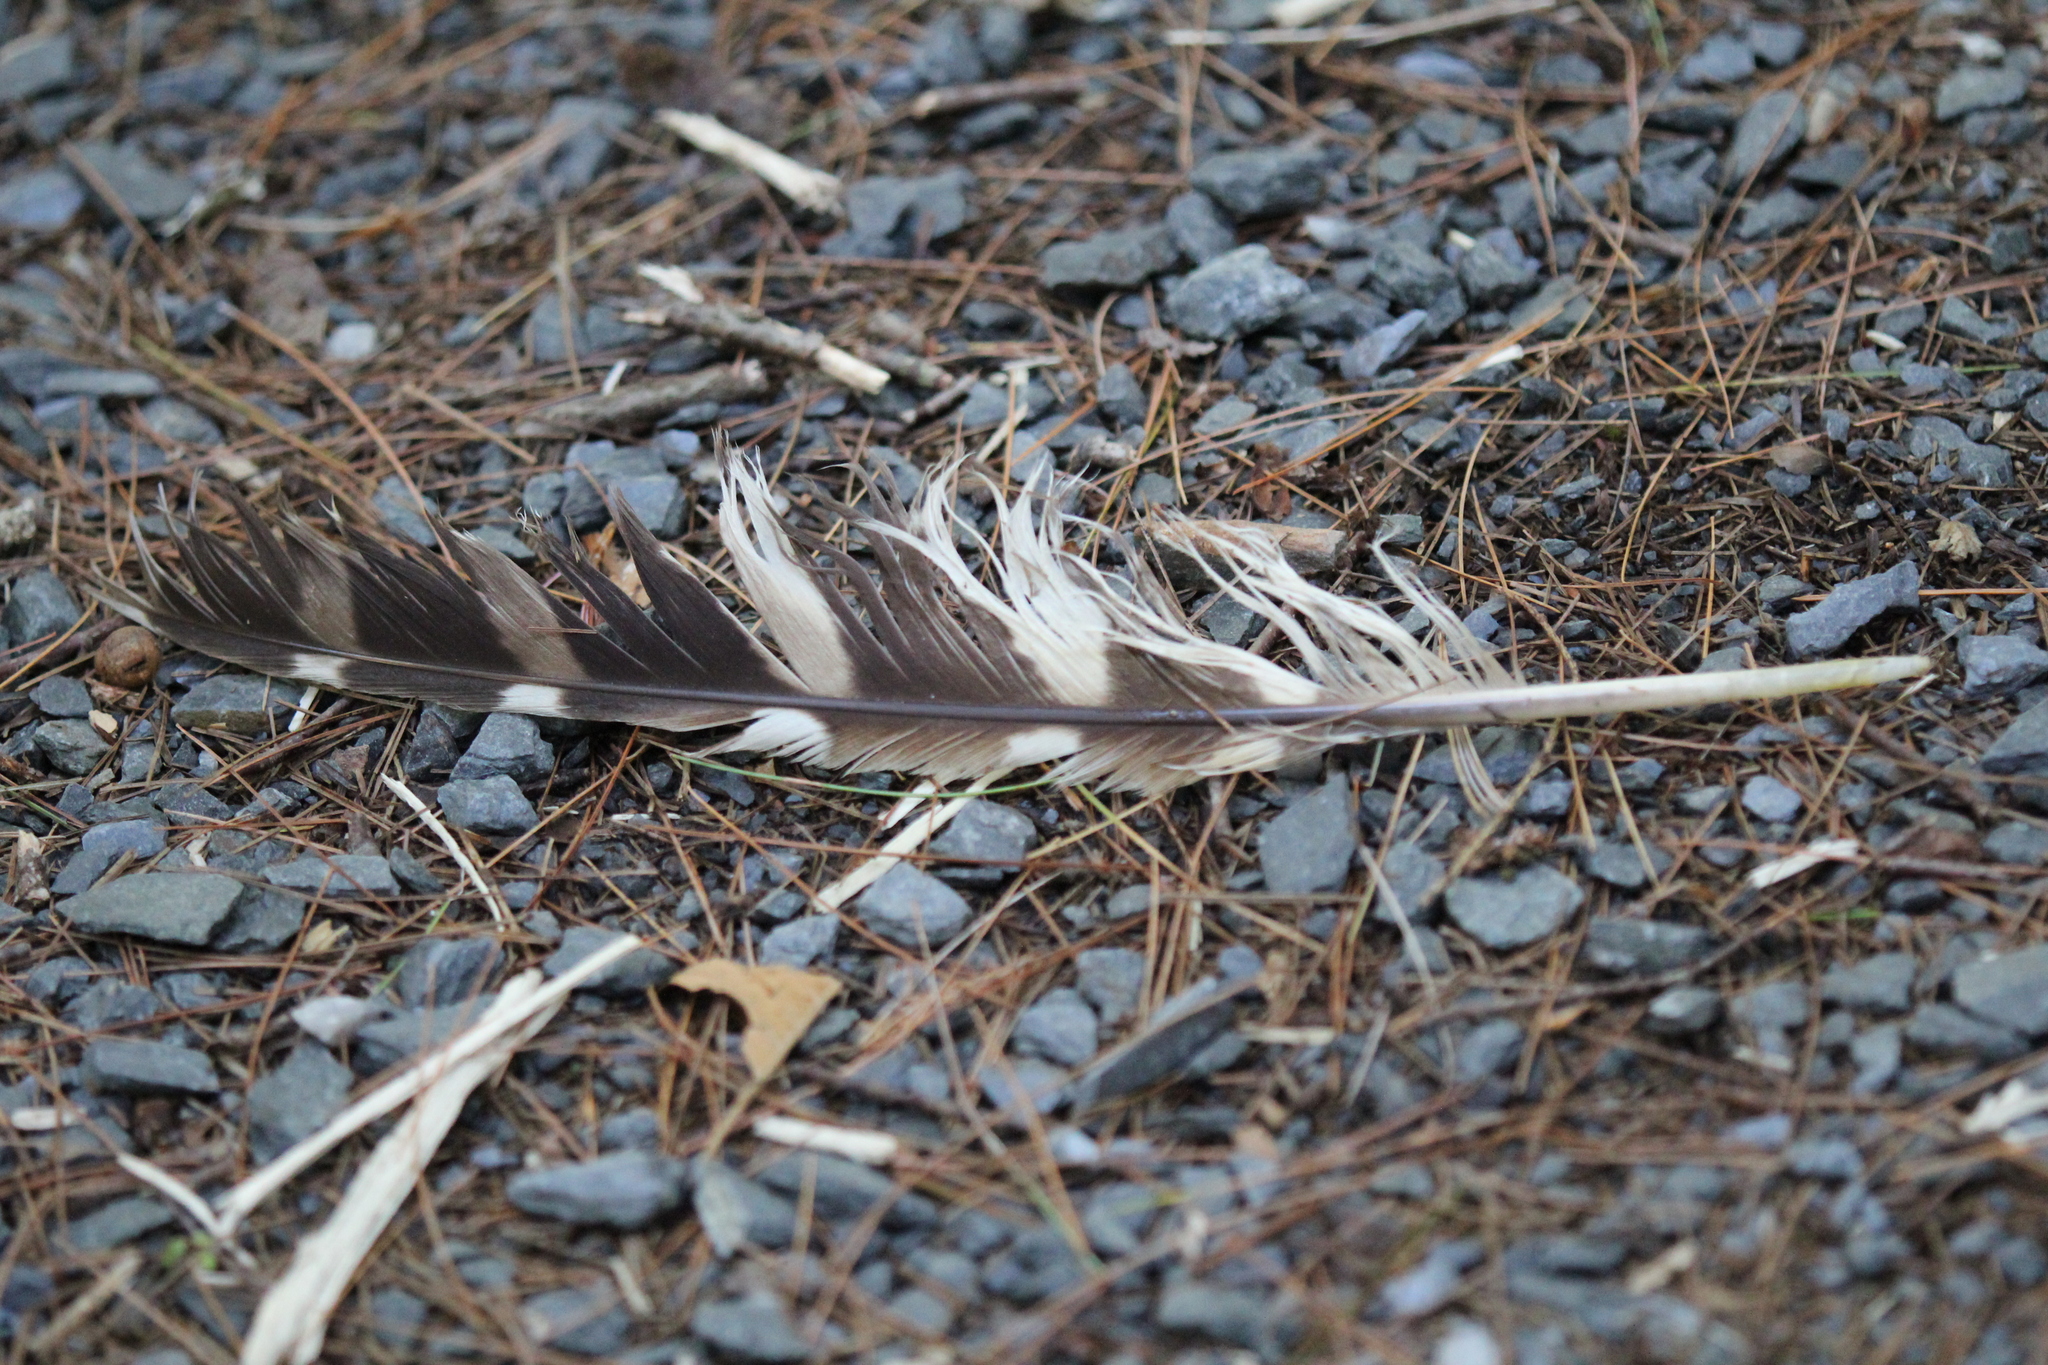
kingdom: Animalia
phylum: Chordata
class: Aves
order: Strigiformes
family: Strigidae
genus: Strix
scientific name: Strix varia
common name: Barred owl
